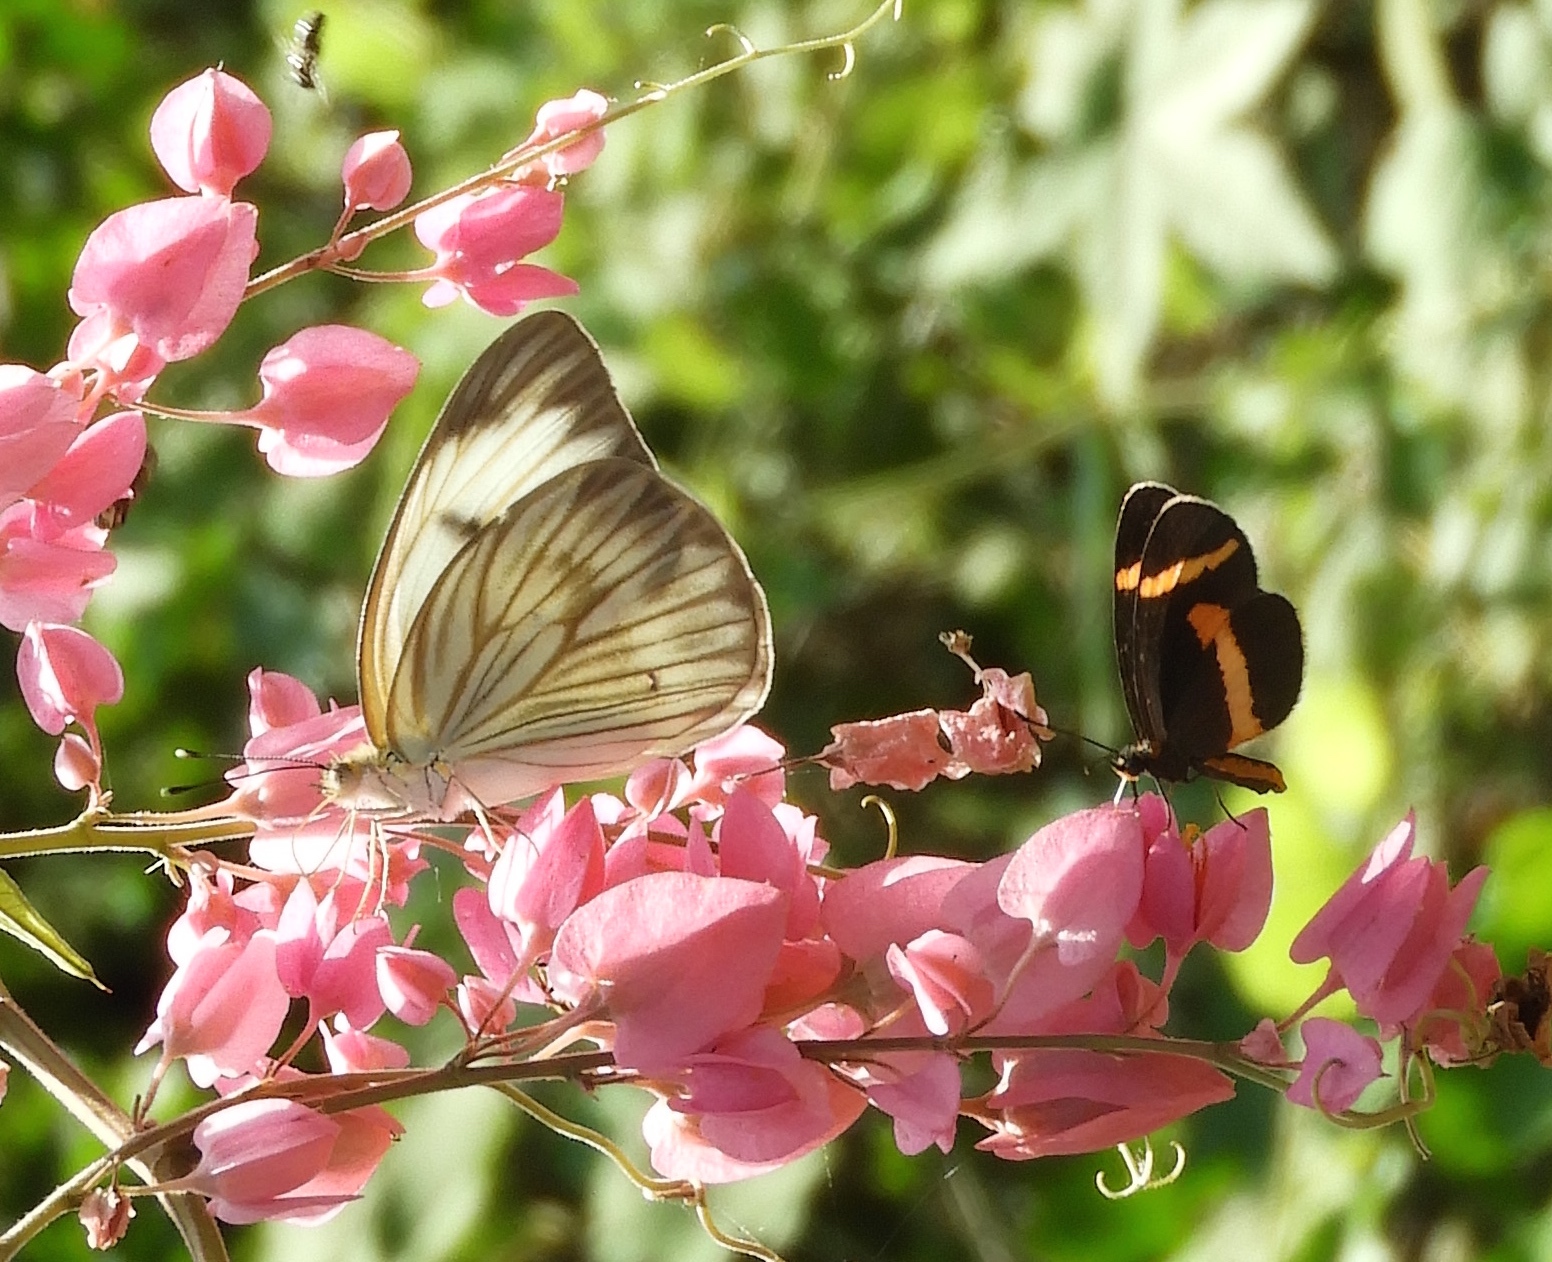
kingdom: Animalia
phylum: Arthropoda
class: Insecta
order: Lepidoptera
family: Nymphalidae
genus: Microtia
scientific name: Microtia elva
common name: Elf
